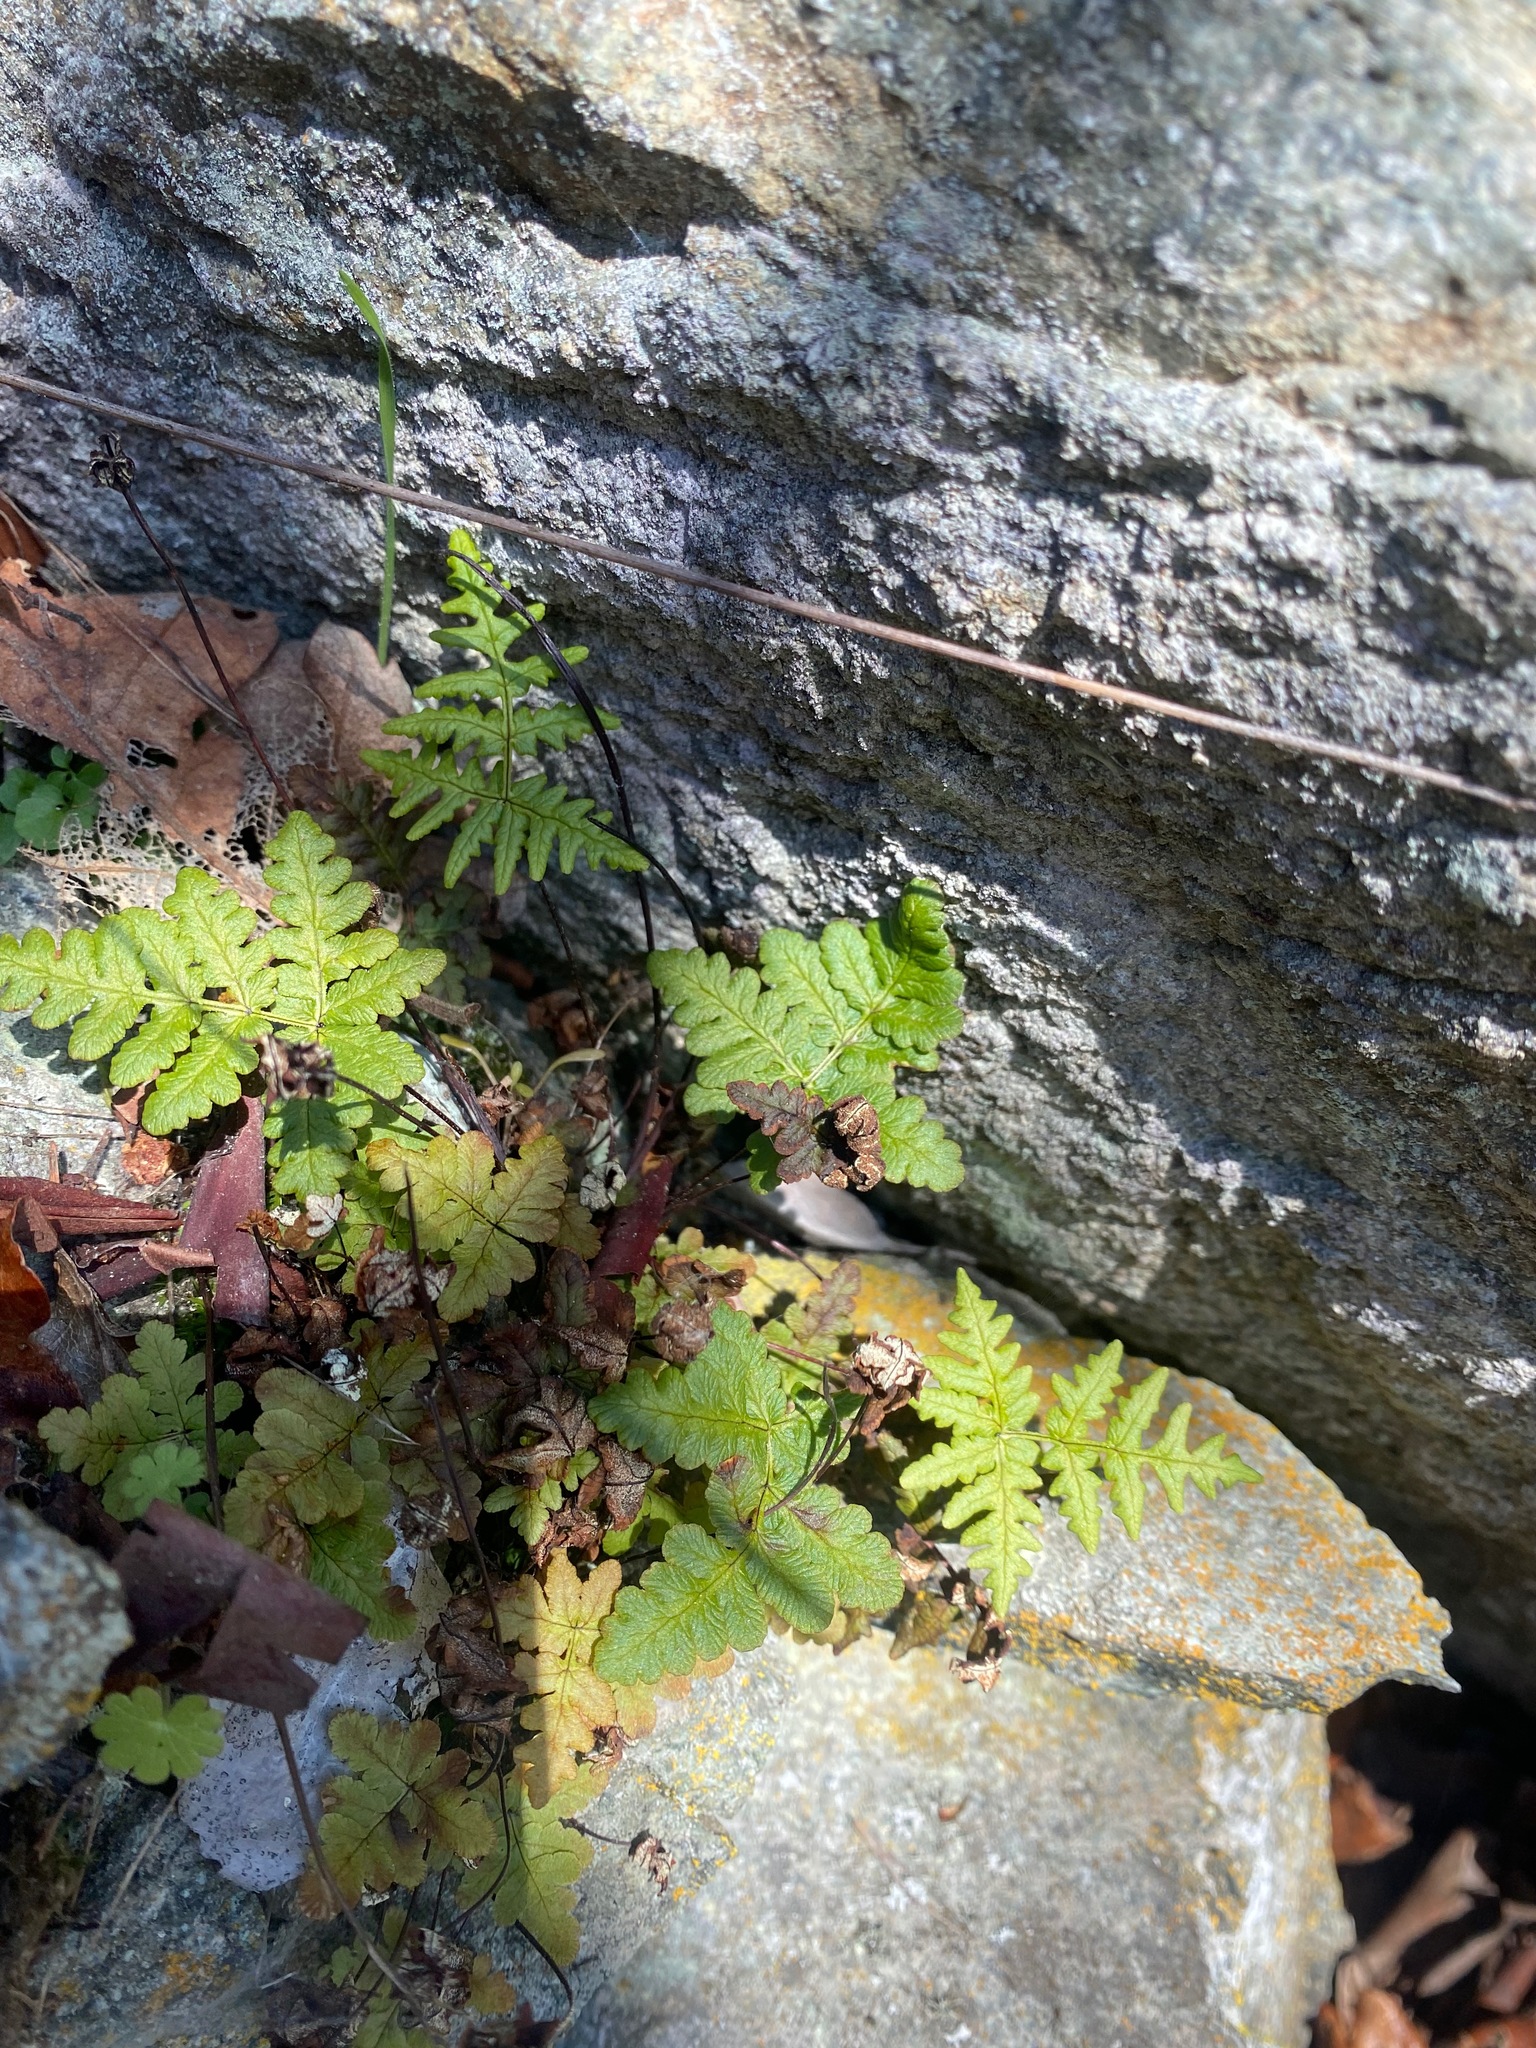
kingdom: Plantae
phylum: Tracheophyta
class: Polypodiopsida
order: Polypodiales
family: Pteridaceae
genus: Pentagramma
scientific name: Pentagramma triangularis
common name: Gold fern
